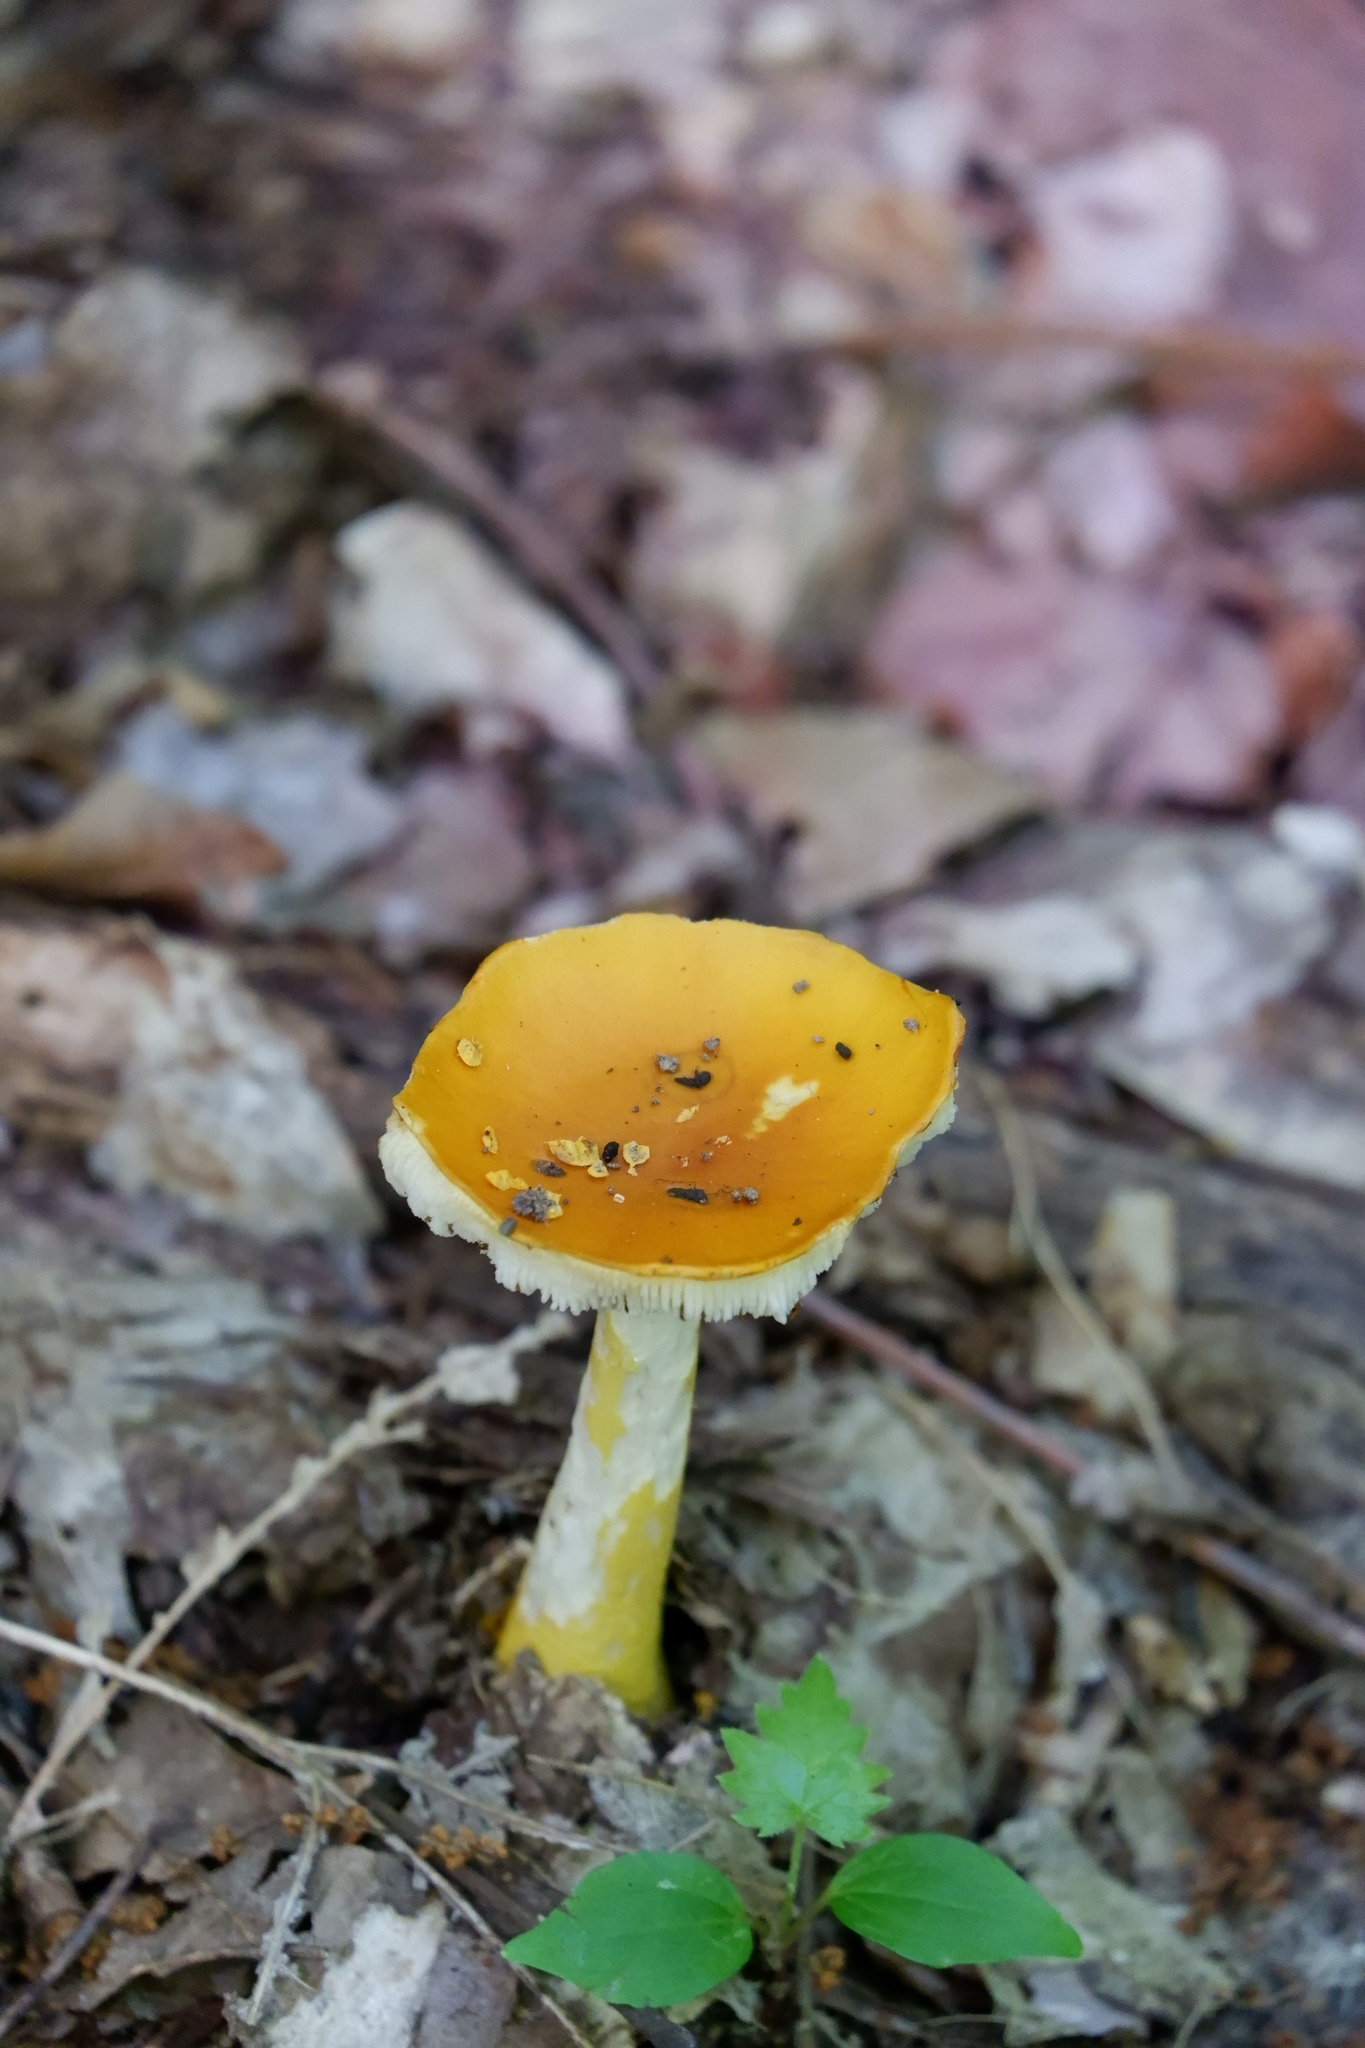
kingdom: Fungi
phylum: Basidiomycota
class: Agaricomycetes
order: Agaricales
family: Amanitaceae
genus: Amanita
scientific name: Amanita flavoconia
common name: Yellow patches
